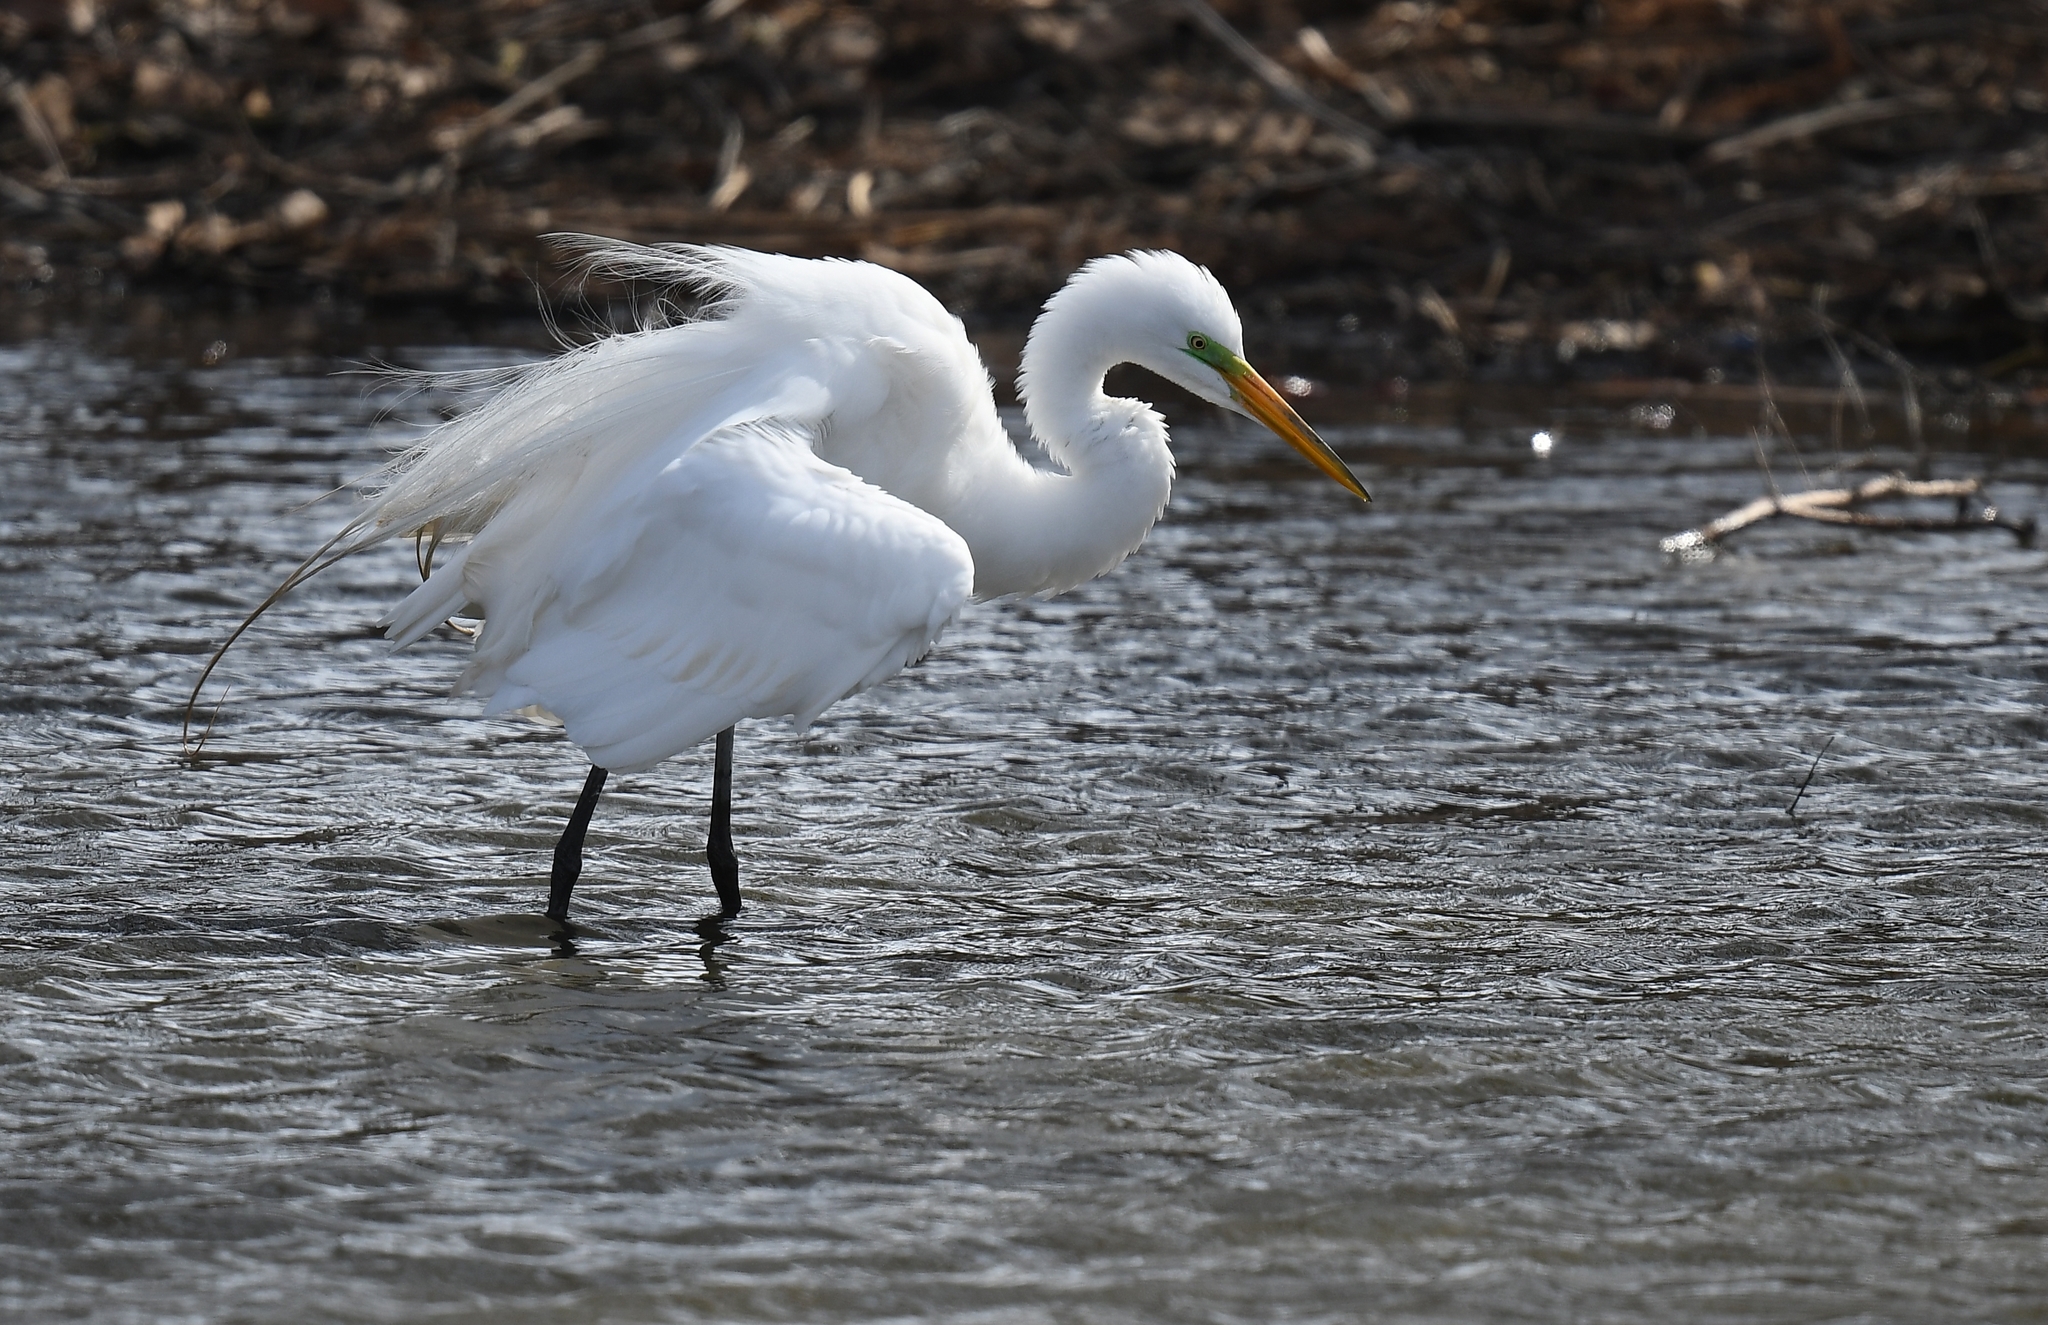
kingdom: Animalia
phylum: Chordata
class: Aves
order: Pelecaniformes
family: Ardeidae
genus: Ardea
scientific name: Ardea alba
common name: Great egret
